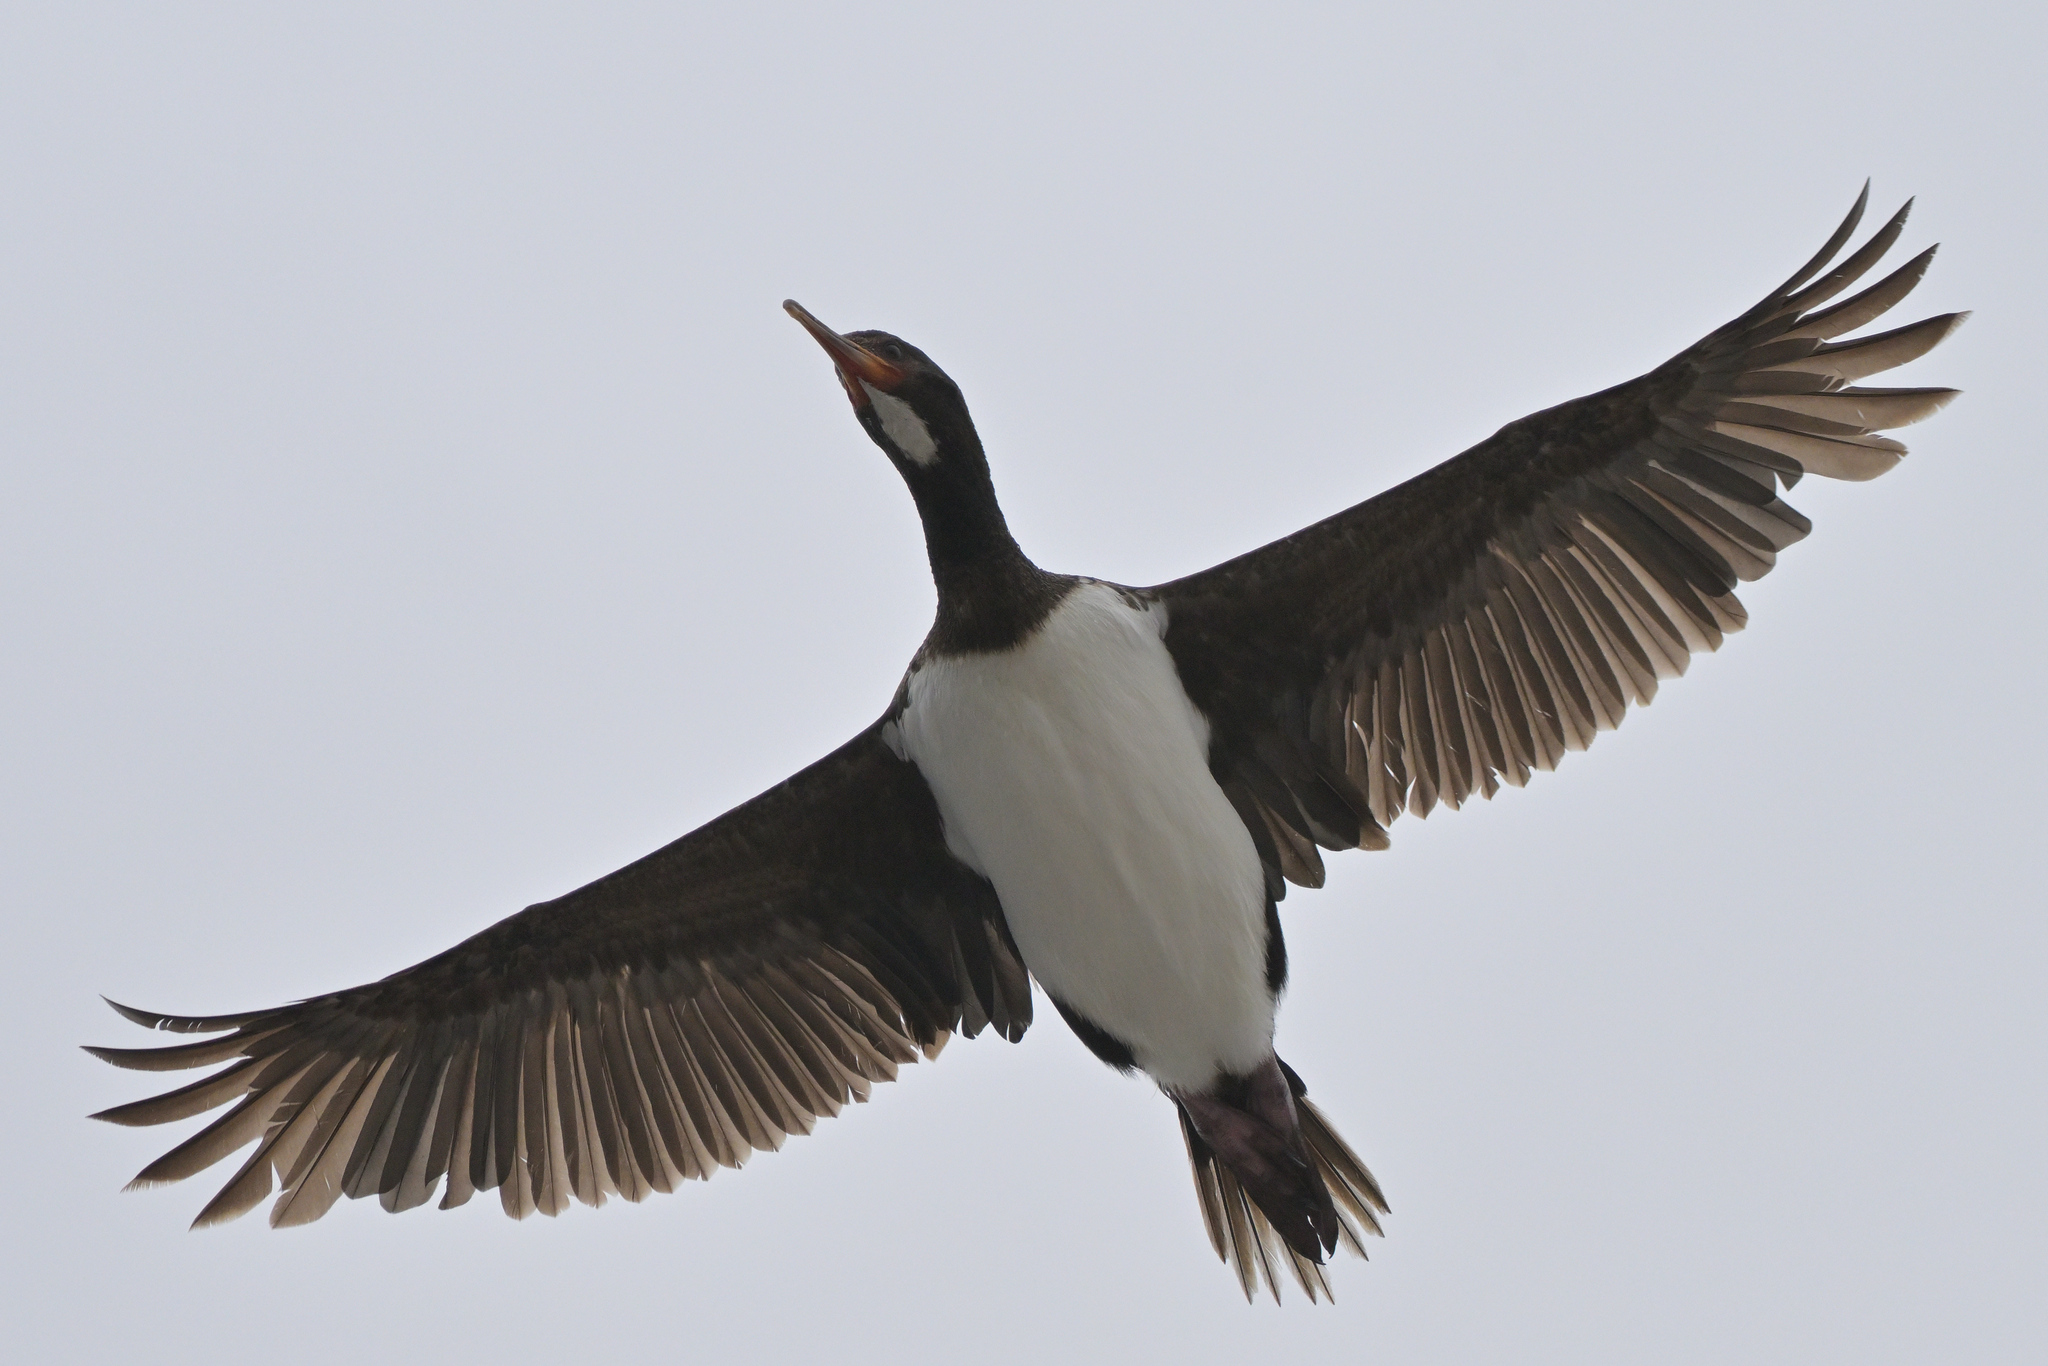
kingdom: Animalia
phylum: Chordata
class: Aves
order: Suliformes
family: Phalacrocoracidae
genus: Leucocarbo
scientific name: Leucocarbo campbelli
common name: Campbell shag
